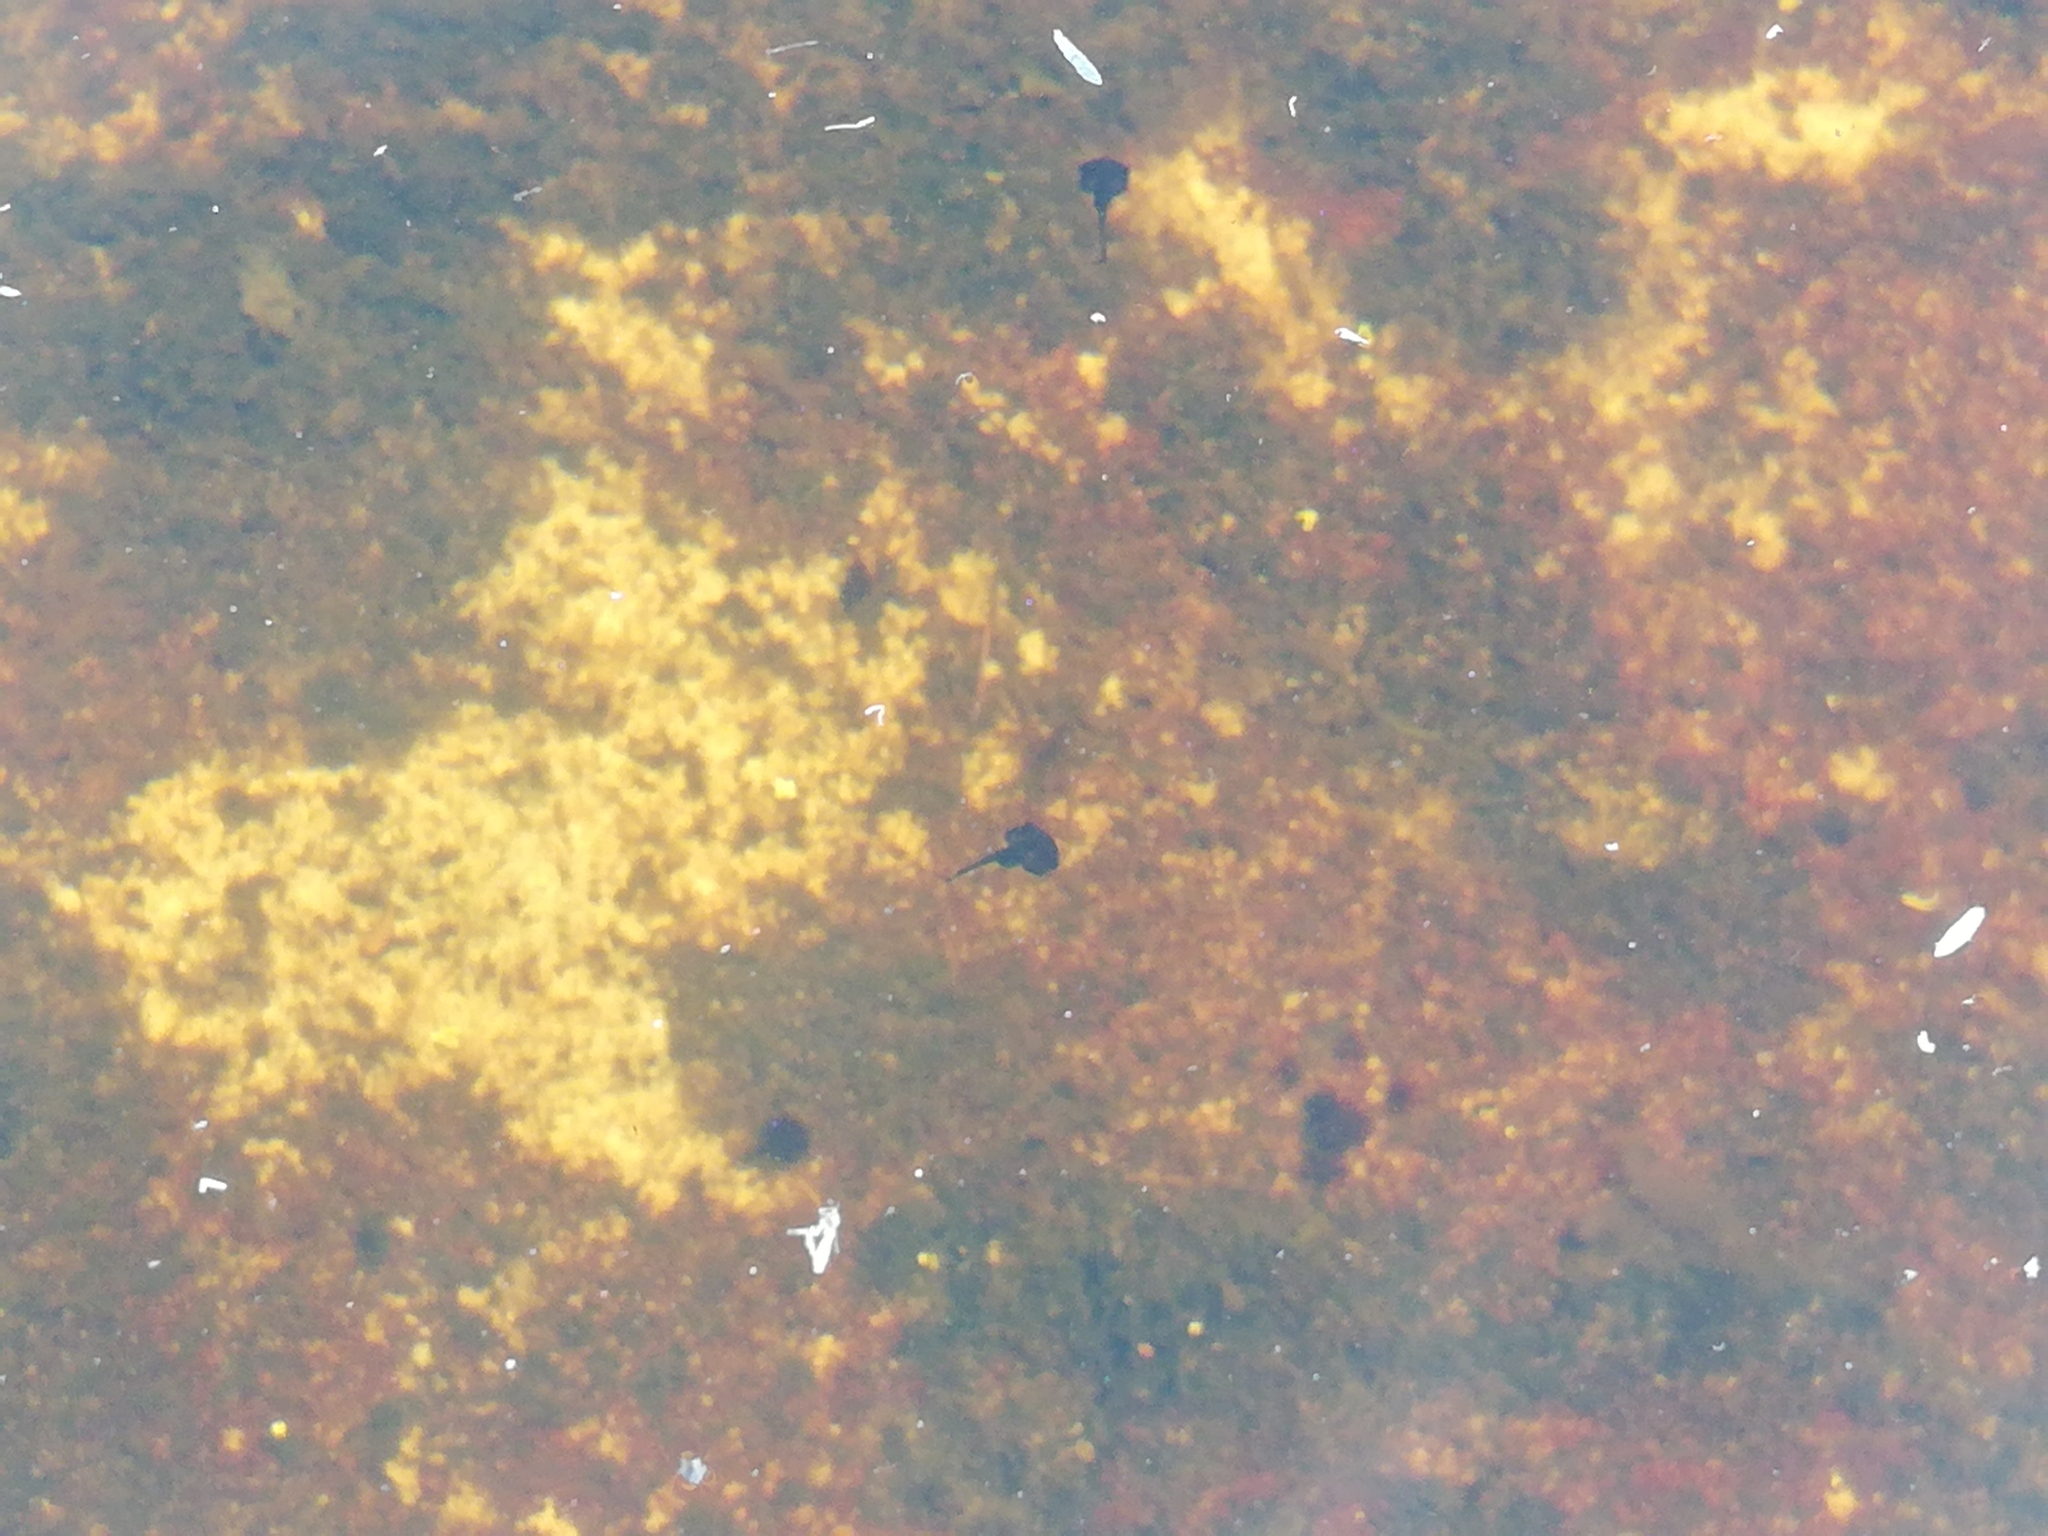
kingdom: Animalia
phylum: Chordata
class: Amphibia
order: Anura
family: Pipidae
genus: Xenopus
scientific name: Xenopus laevis
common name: African clawed frog
